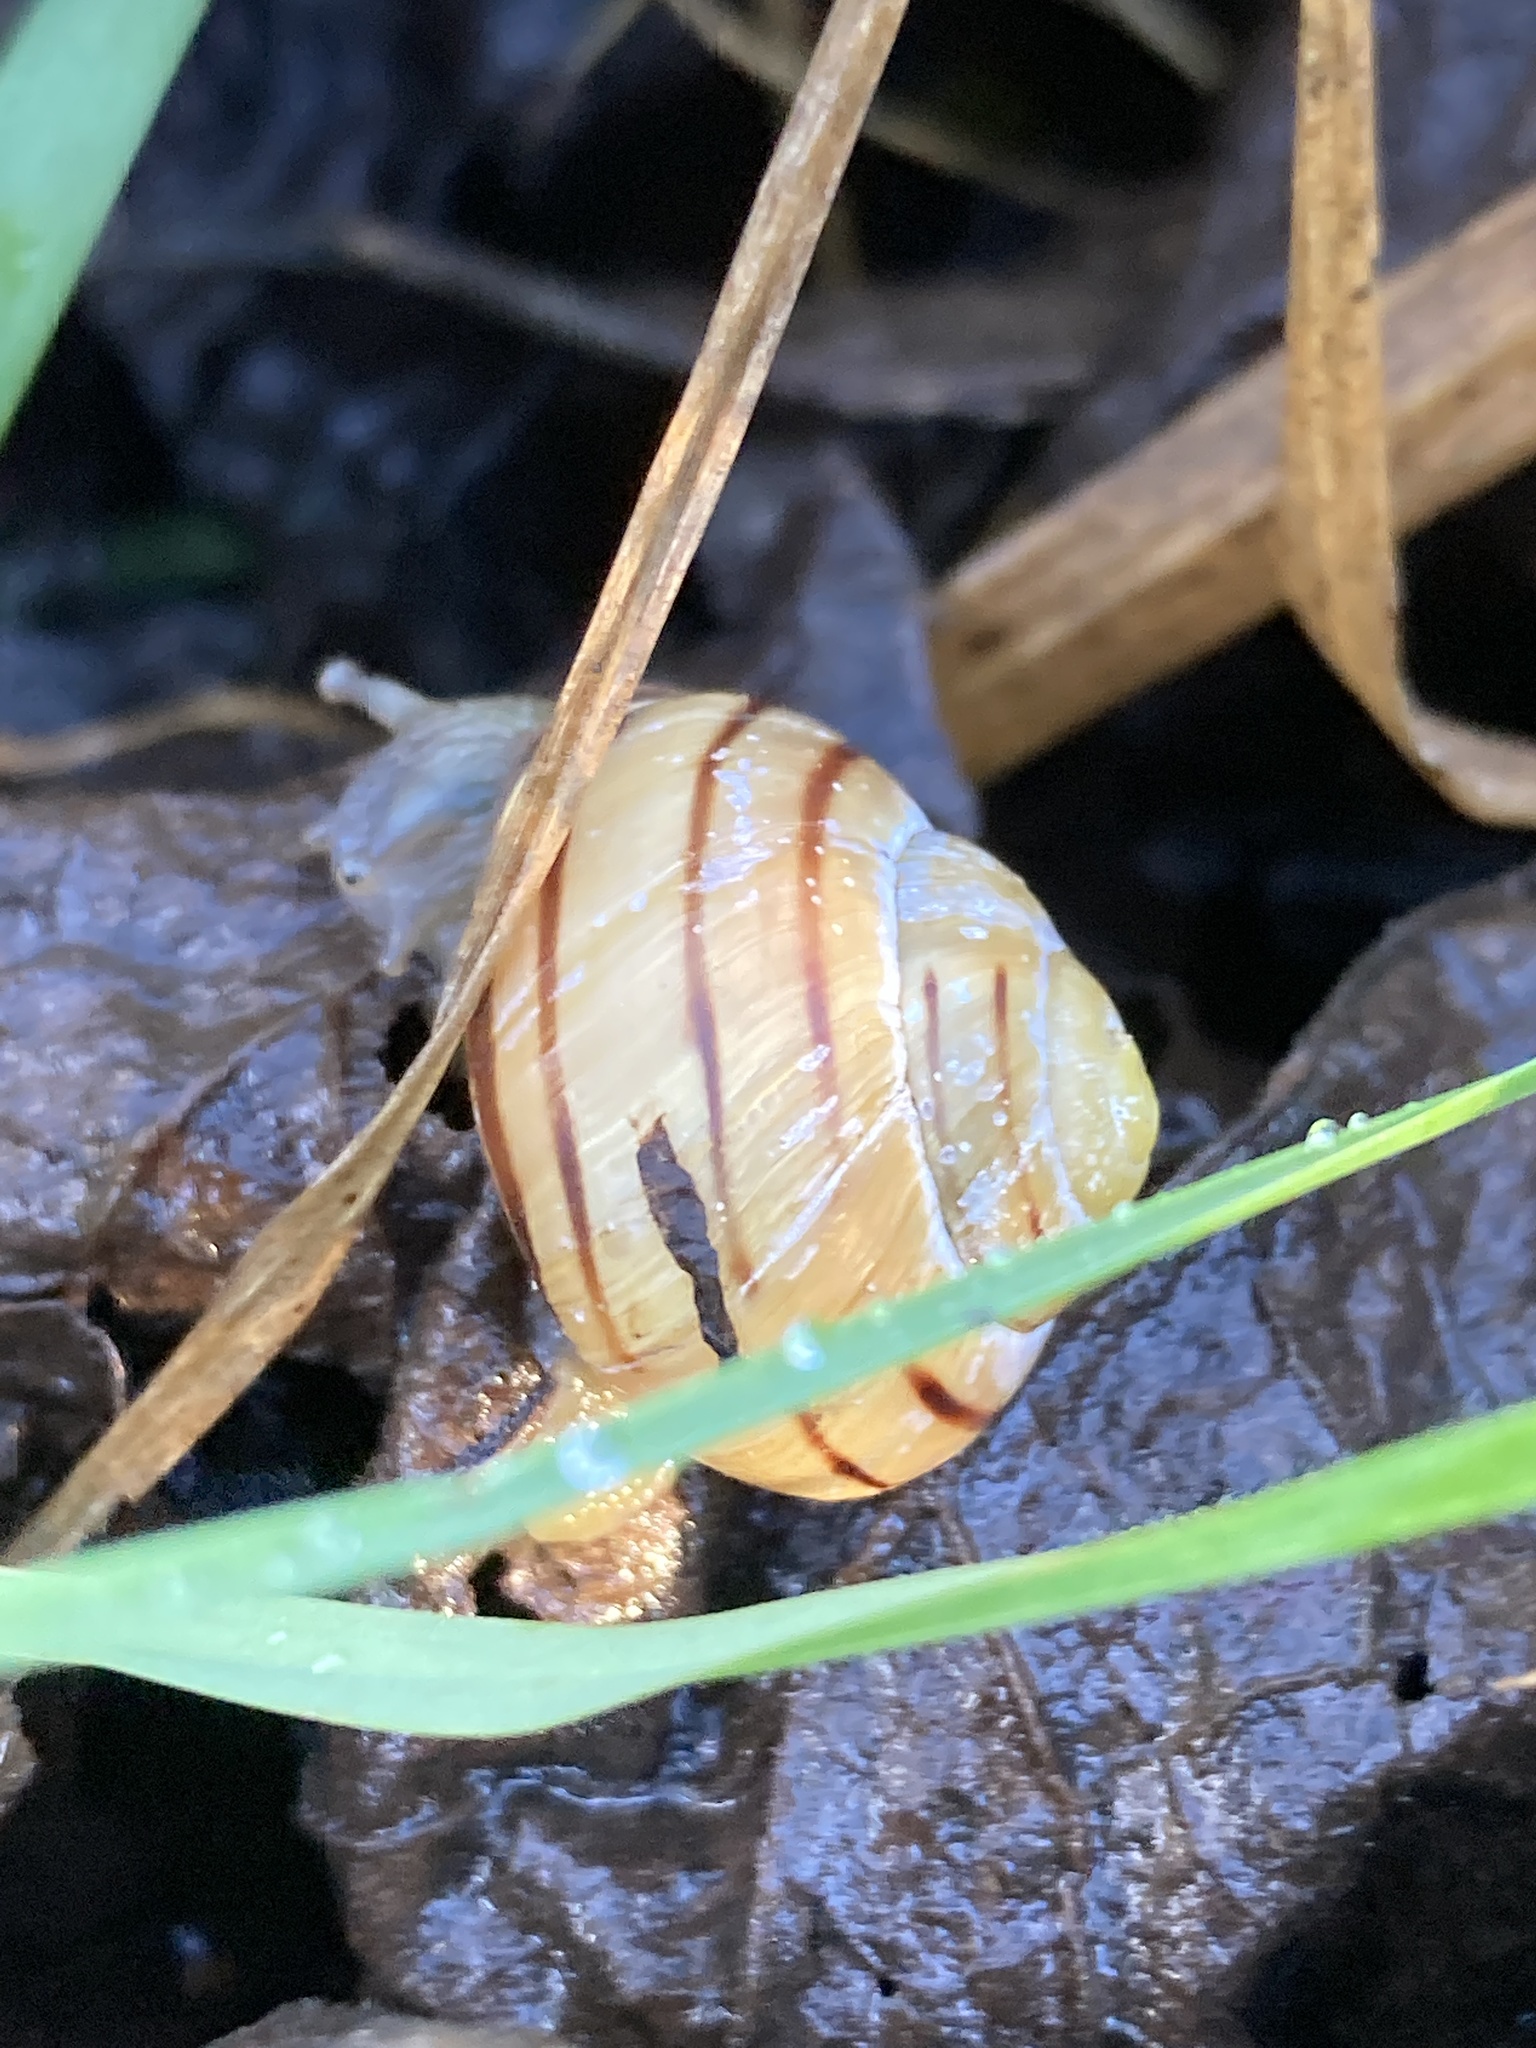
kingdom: Animalia
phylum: Mollusca
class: Gastropoda
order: Stylommatophora
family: Helicidae
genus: Cepaea
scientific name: Cepaea
